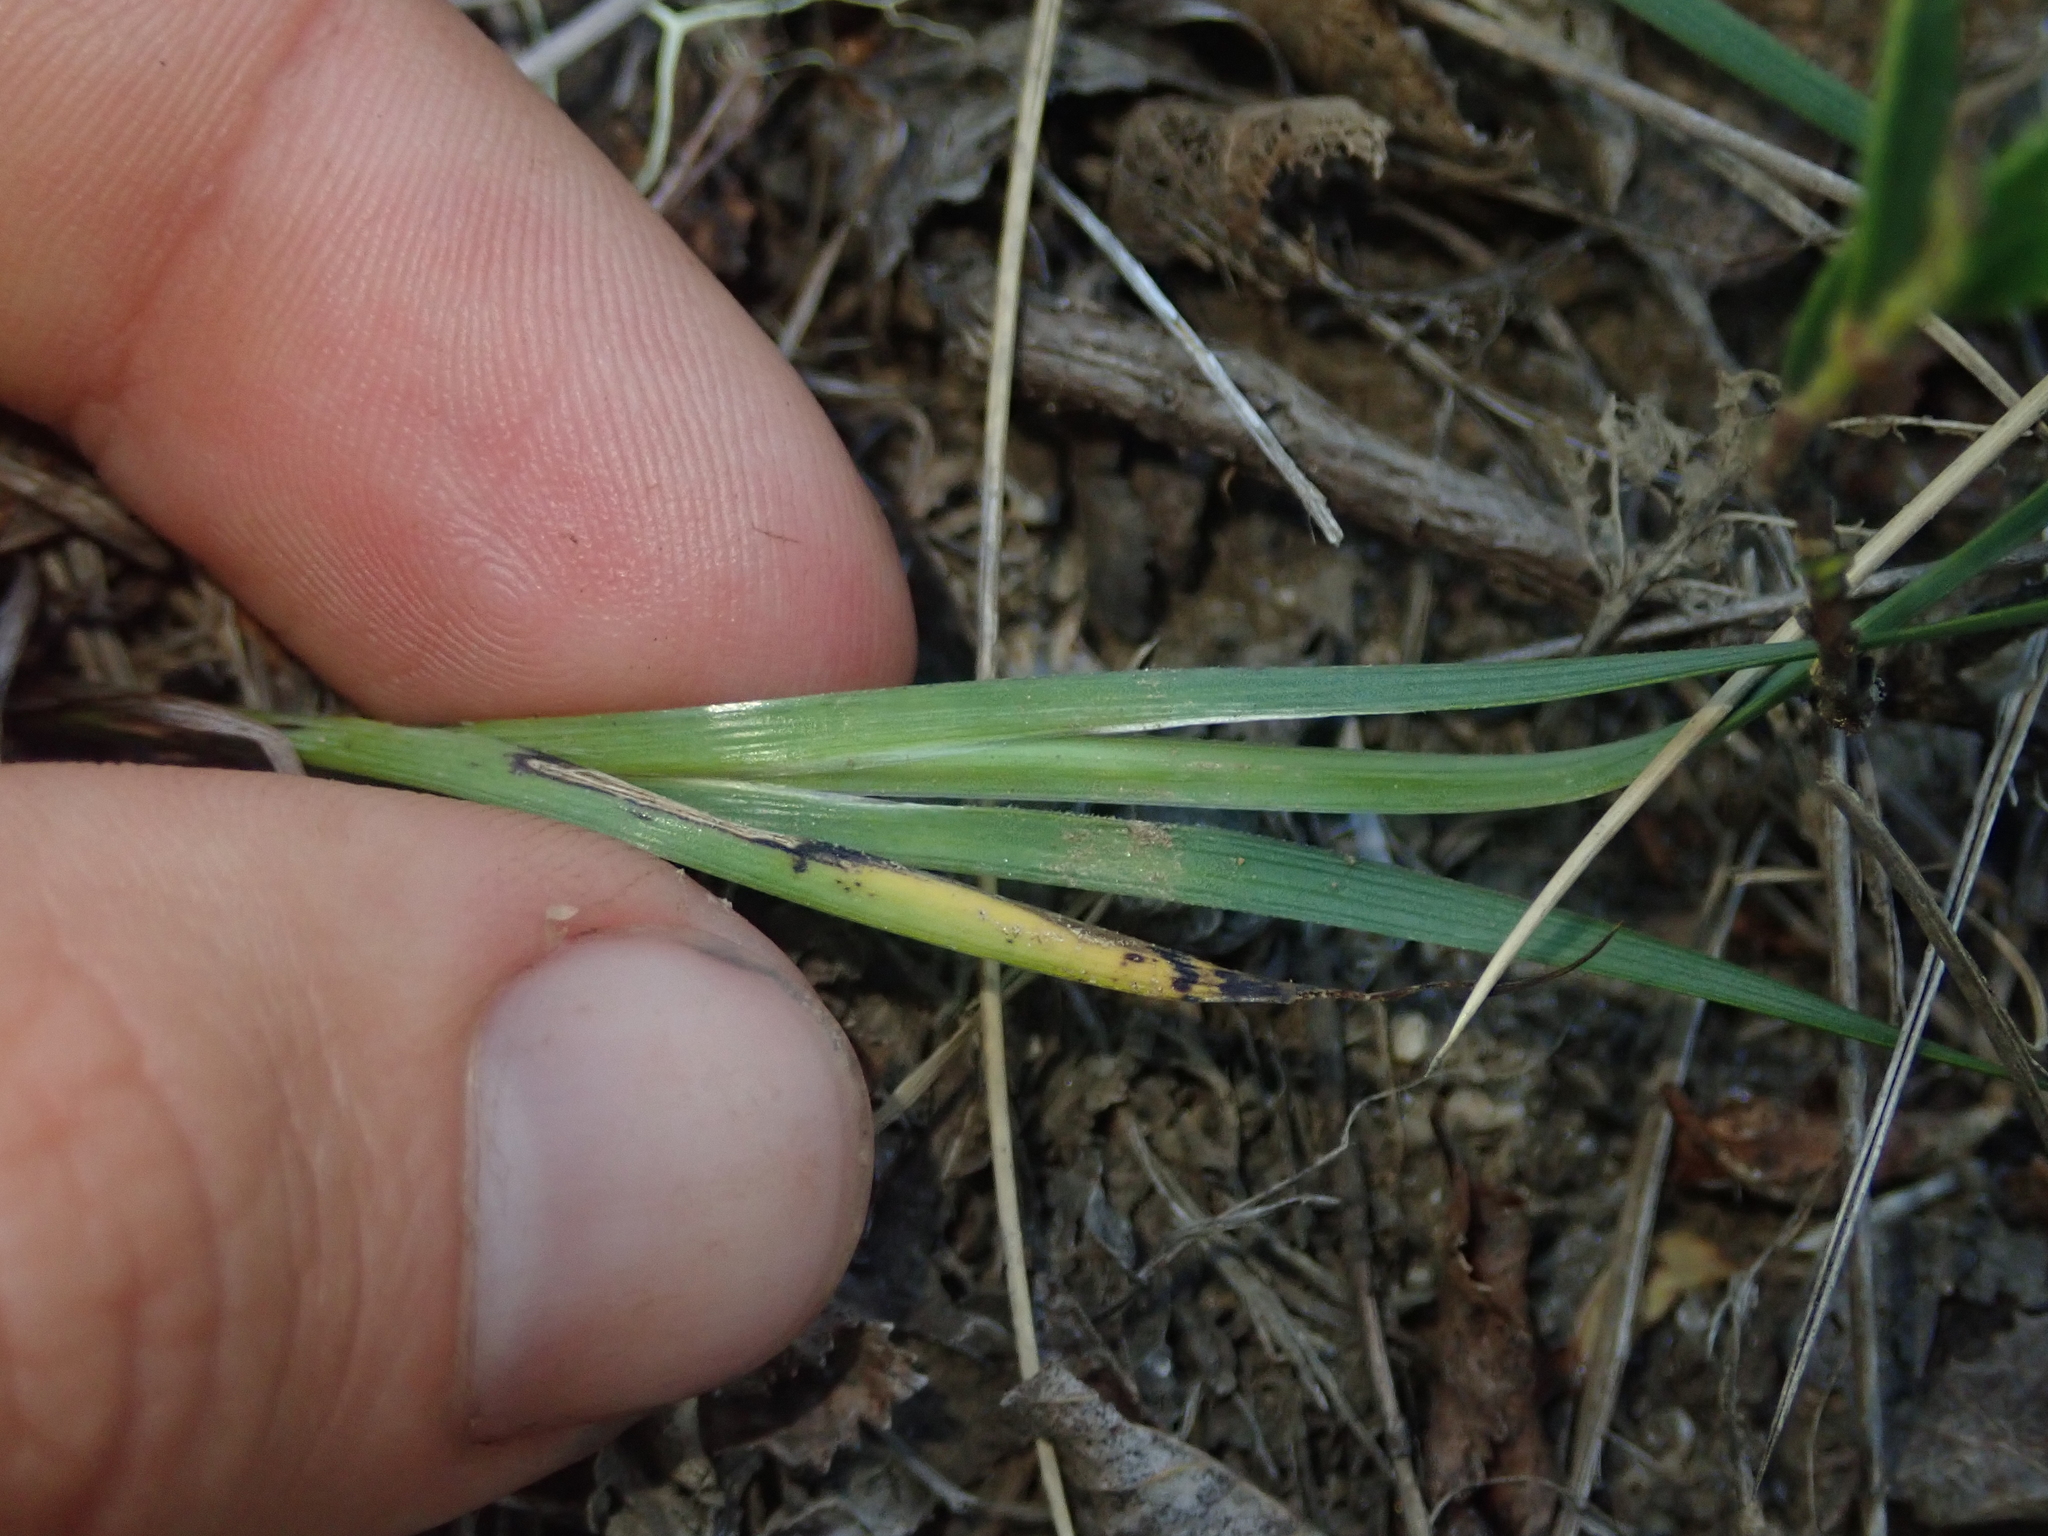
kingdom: Plantae
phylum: Tracheophyta
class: Liliopsida
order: Asparagales
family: Iridaceae
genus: Sisyrinchium
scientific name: Sisyrinchium patagonicum
